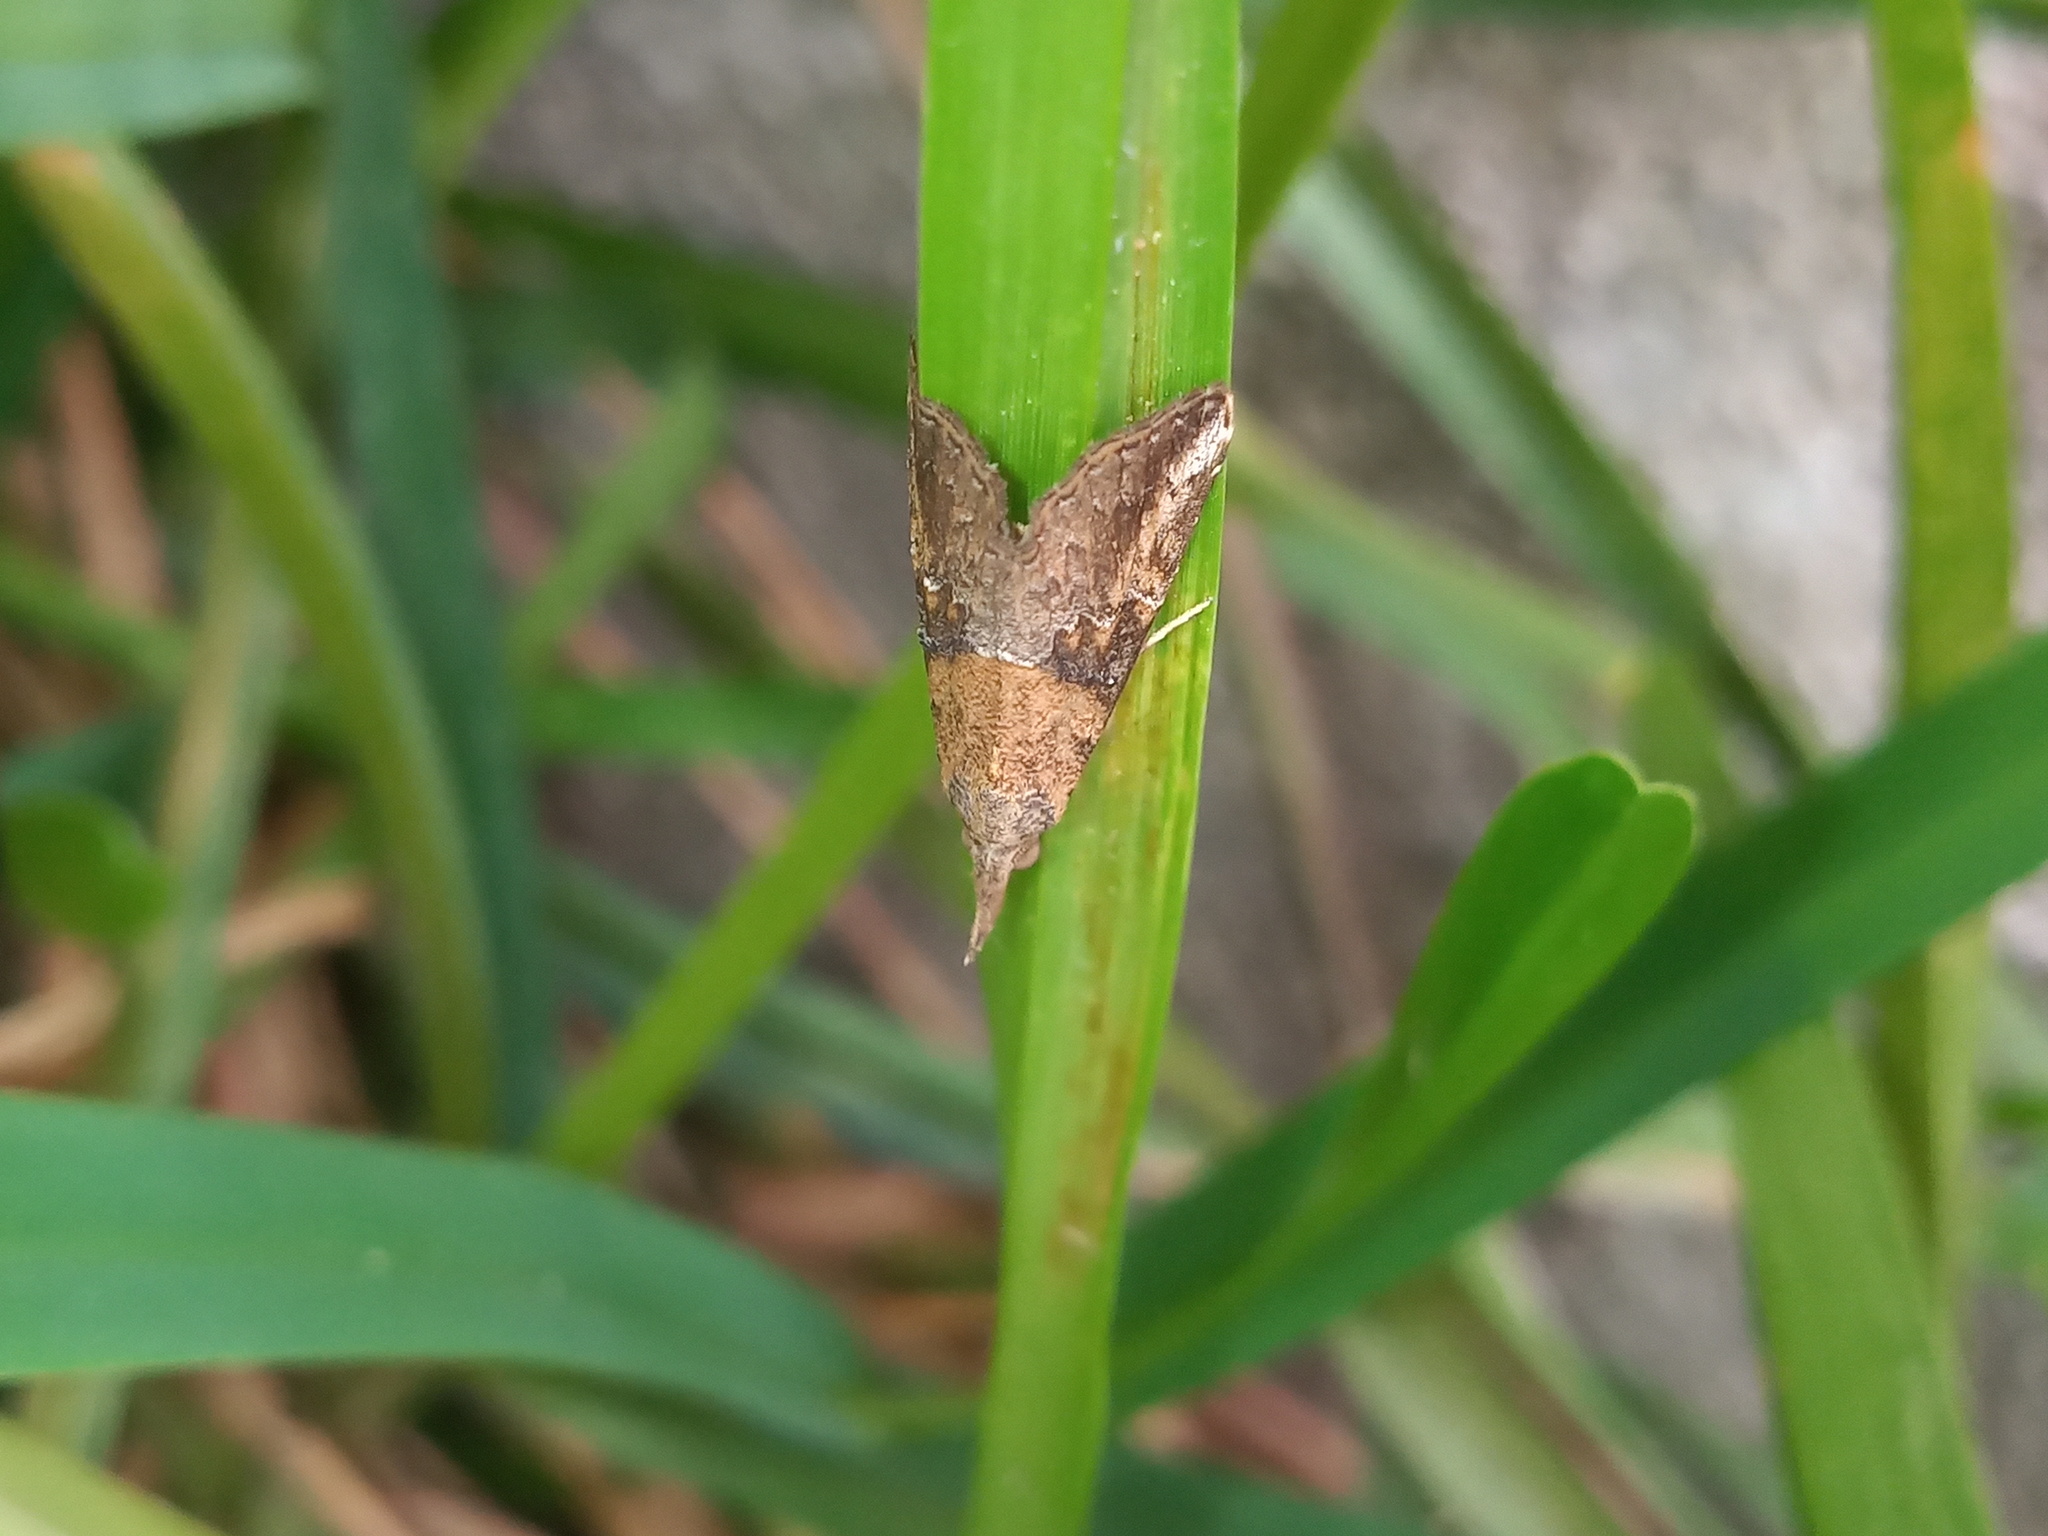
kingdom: Animalia
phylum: Arthropoda
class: Insecta
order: Lepidoptera
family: Erebidae
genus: Hypena
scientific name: Hypena minualis
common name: Sooty snout
